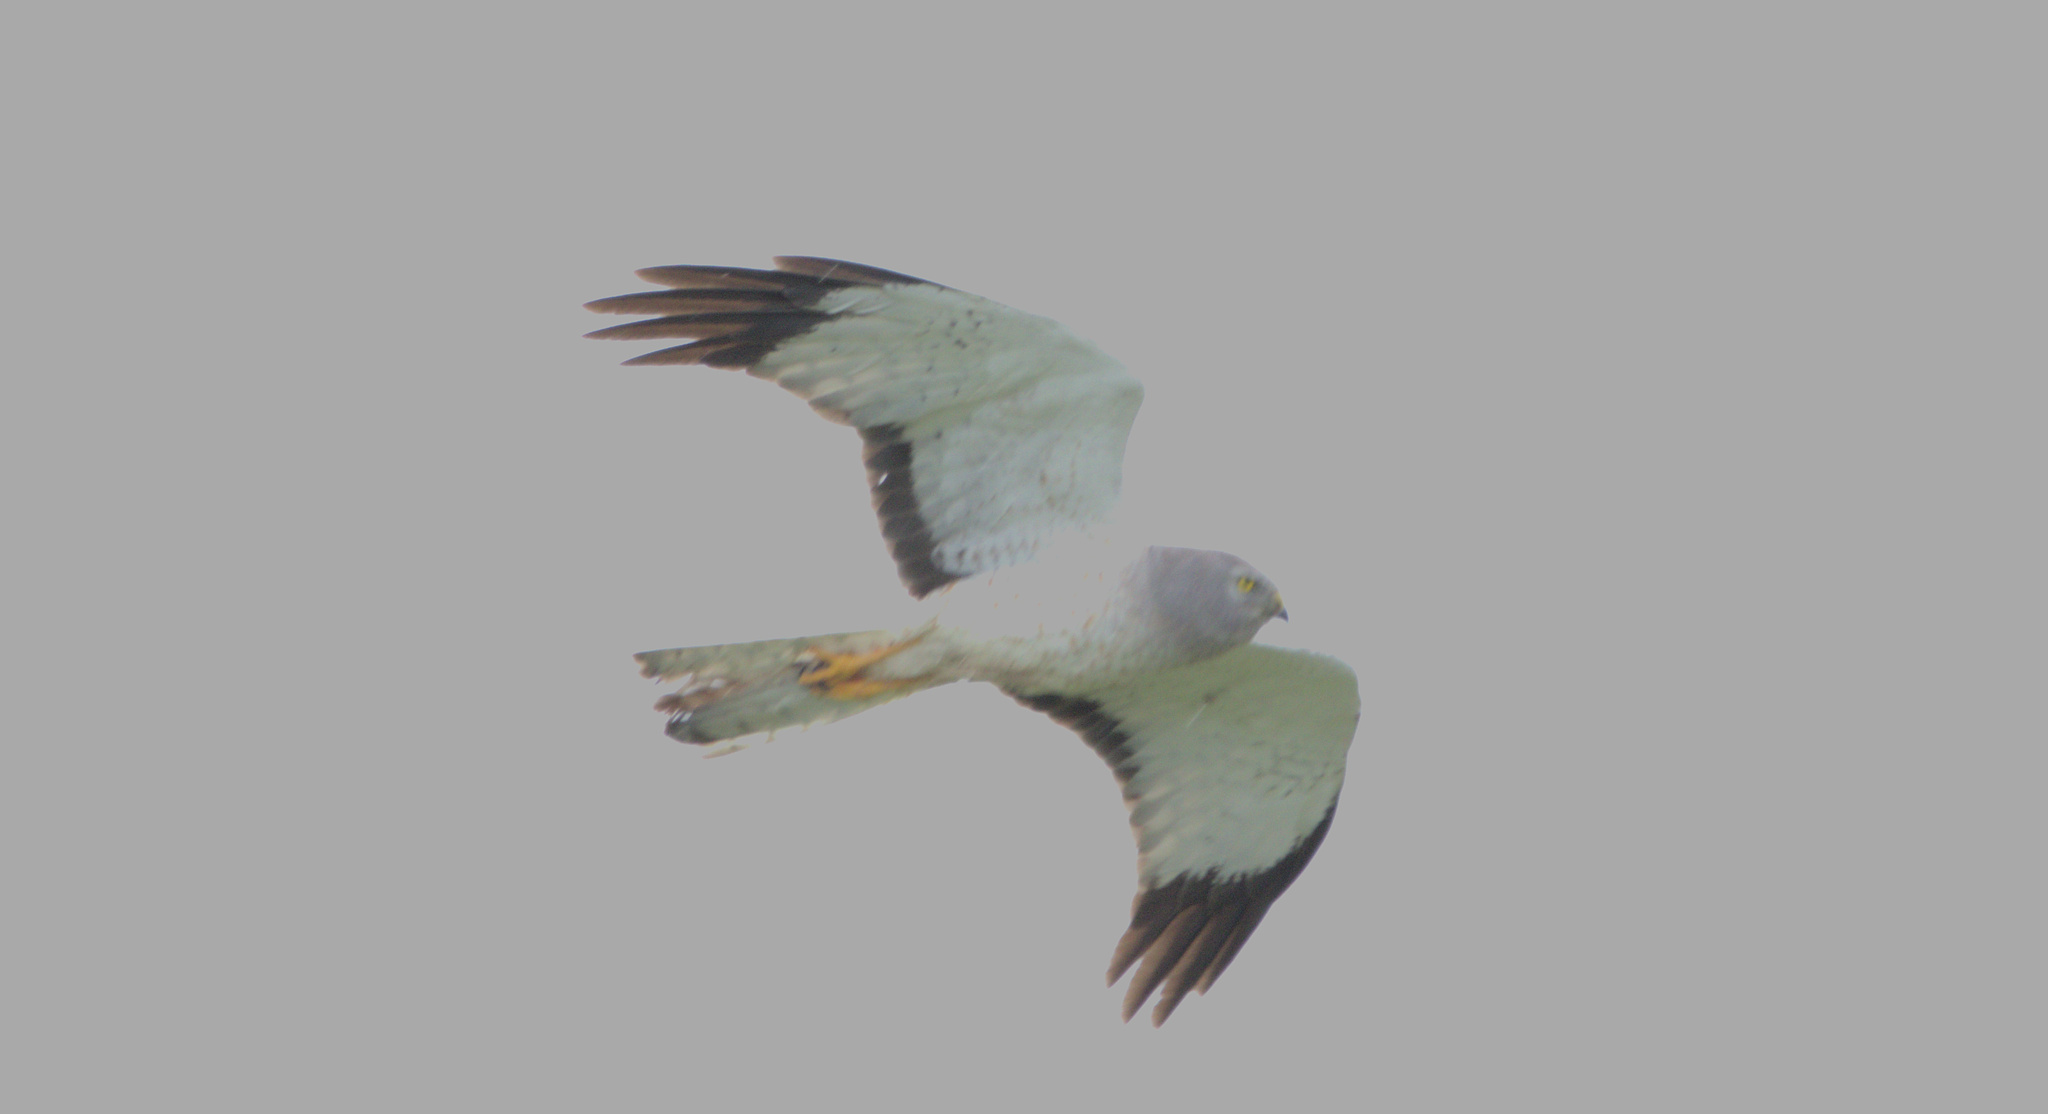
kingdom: Animalia
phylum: Chordata
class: Aves
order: Accipitriformes
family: Accipitridae
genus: Circus
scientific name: Circus cyaneus
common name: Hen harrier
